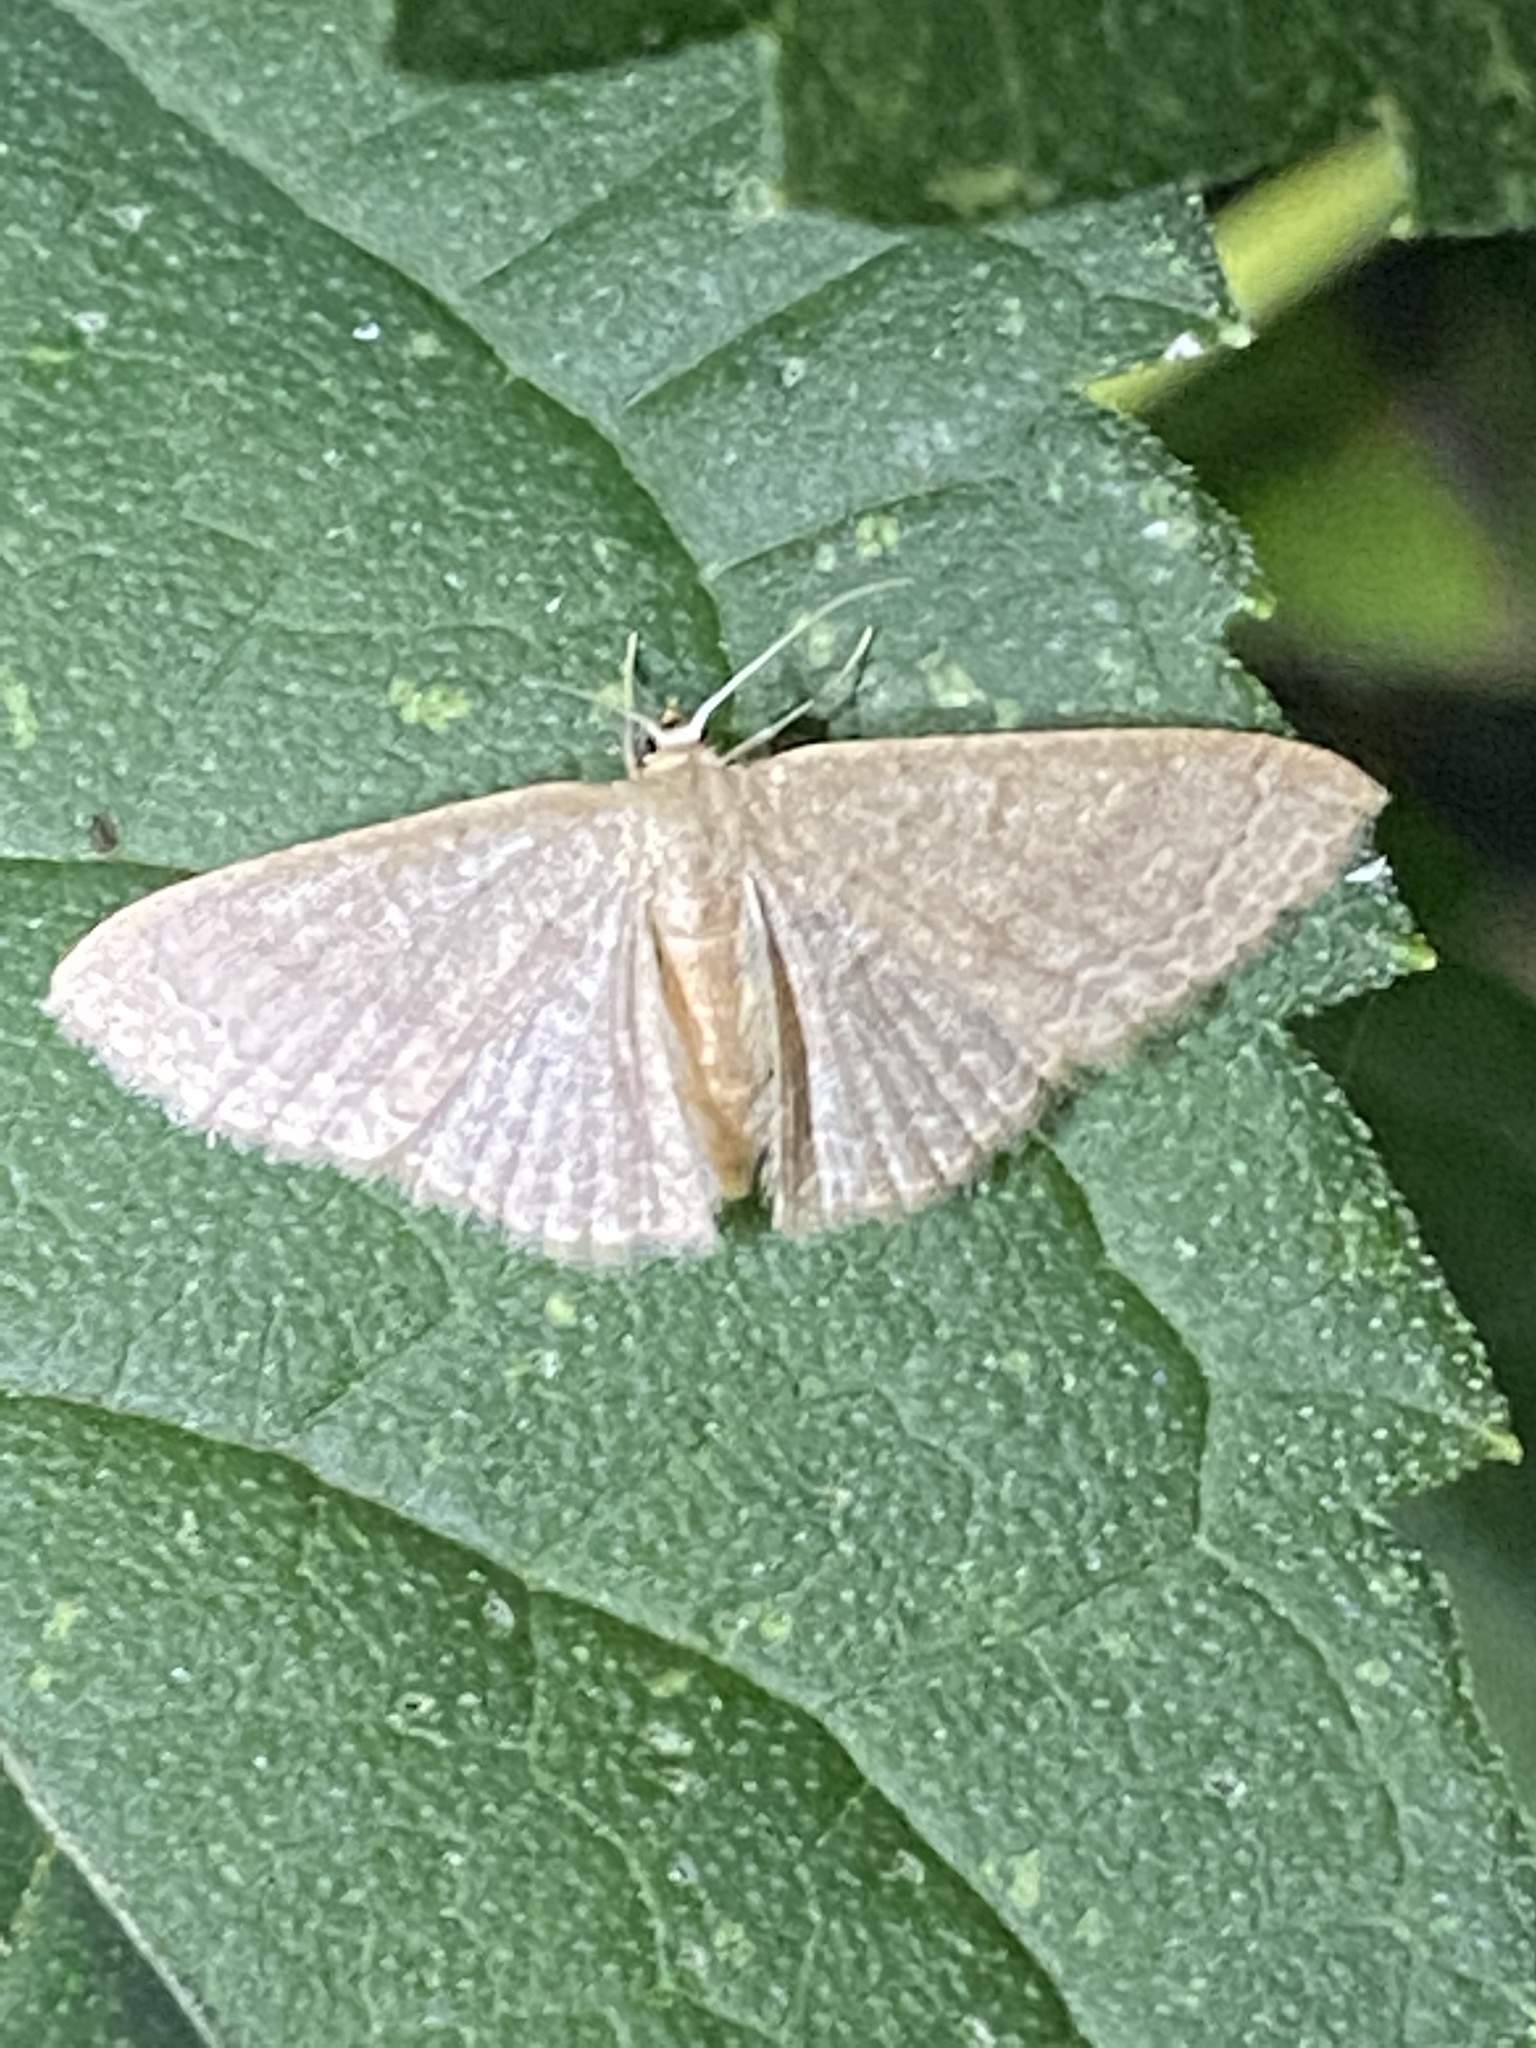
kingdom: Animalia
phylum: Arthropoda
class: Insecta
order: Lepidoptera
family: Geometridae
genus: Pleuroprucha
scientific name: Pleuroprucha insulsaria
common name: Common tan wave
